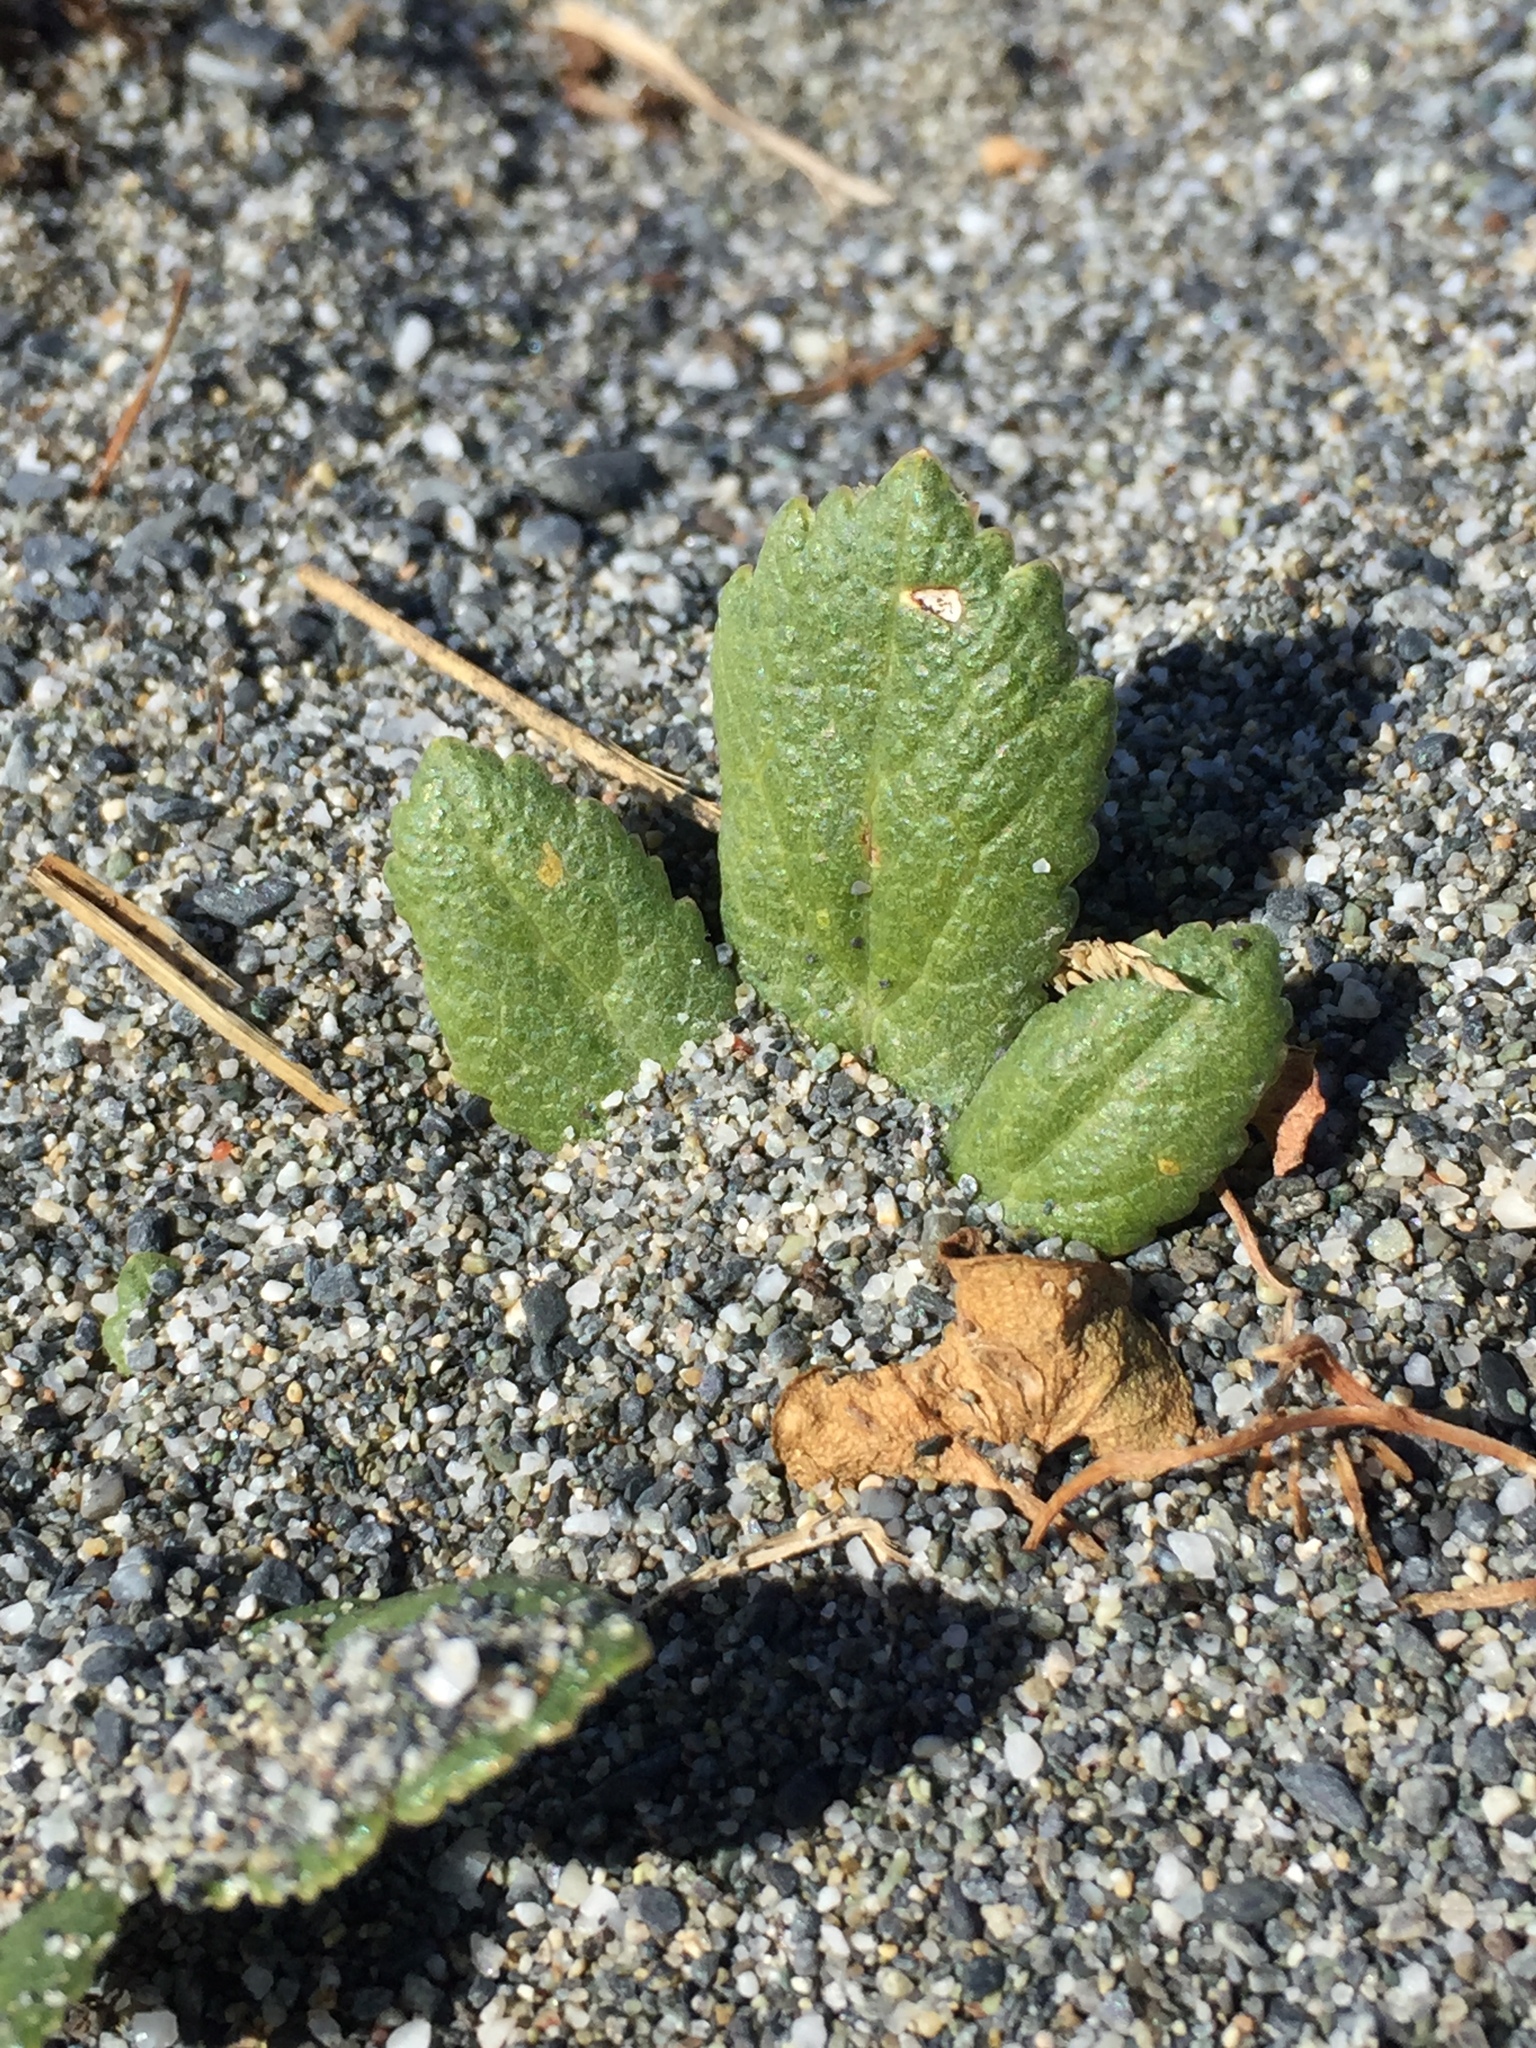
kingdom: Plantae
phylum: Tracheophyta
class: Magnoliopsida
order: Rosales
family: Rosaceae
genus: Fragaria
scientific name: Fragaria chiloensis
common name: Beach strawberry
